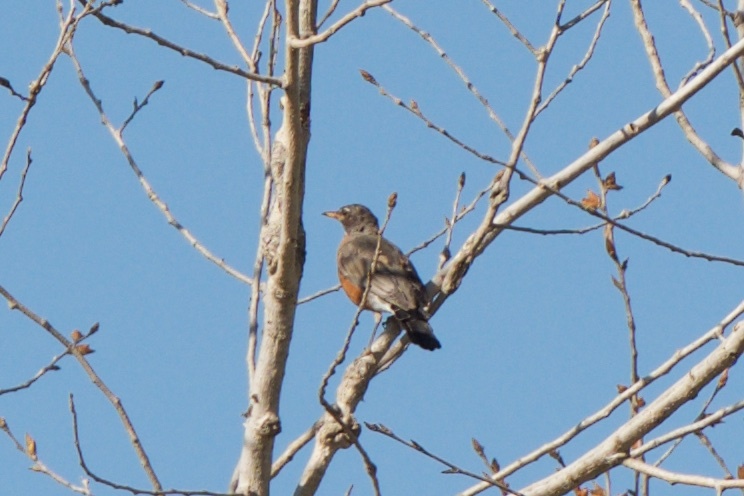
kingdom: Animalia
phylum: Chordata
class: Aves
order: Passeriformes
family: Turdidae
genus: Turdus
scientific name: Turdus migratorius
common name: American robin
